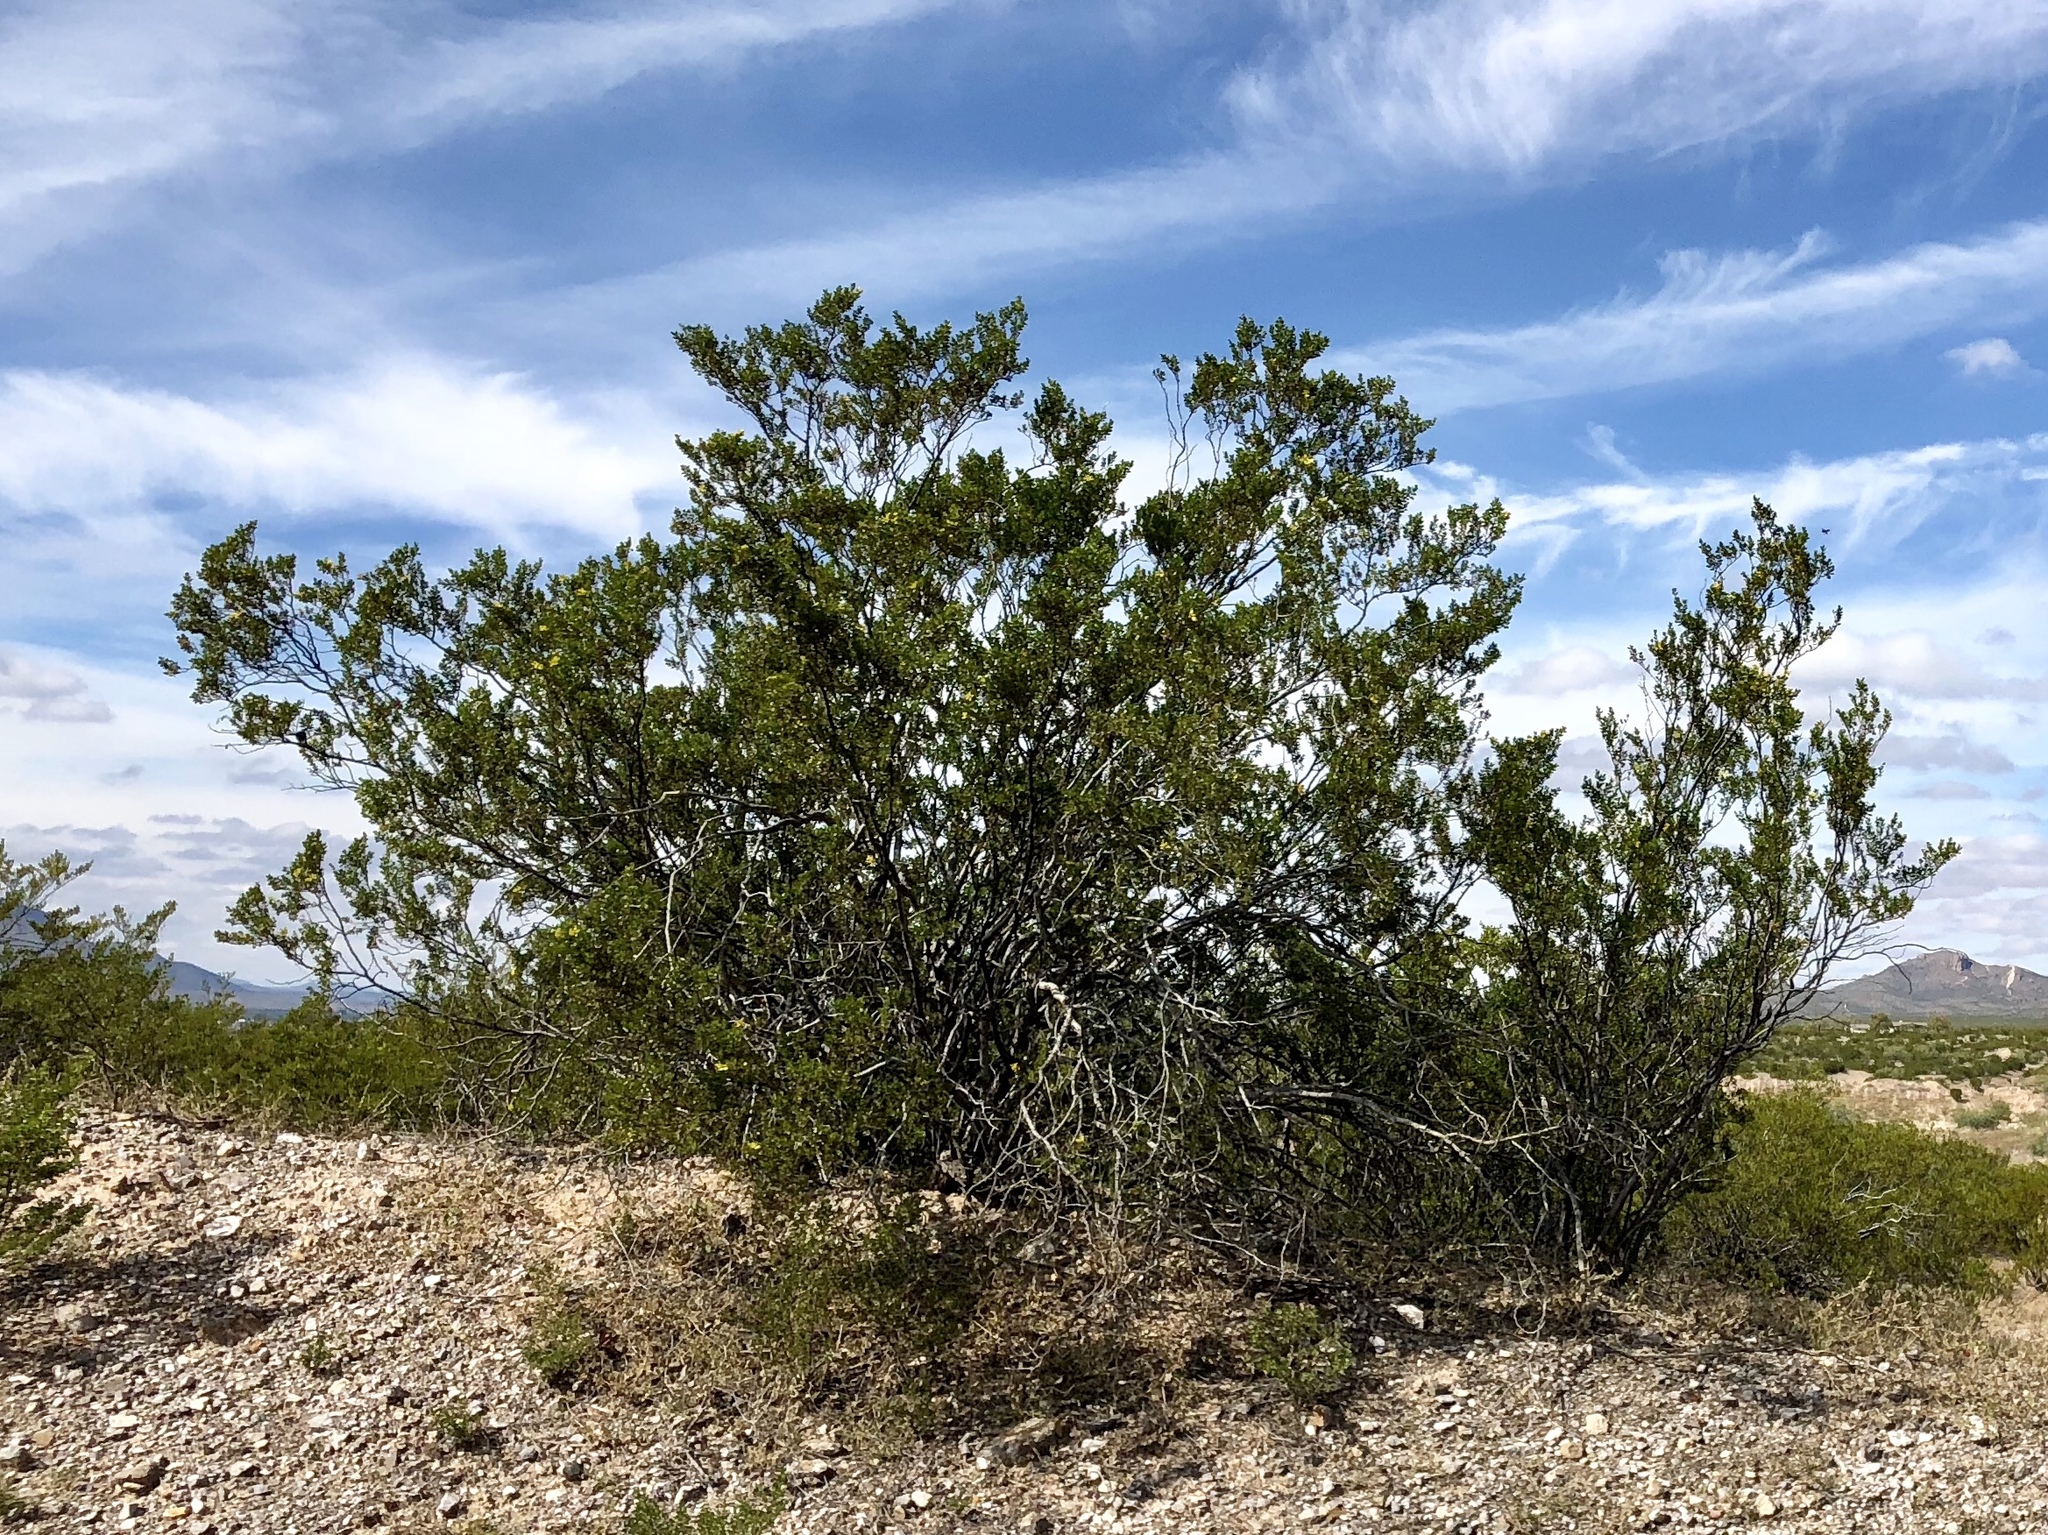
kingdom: Plantae
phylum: Tracheophyta
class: Magnoliopsida
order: Zygophyllales
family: Zygophyllaceae
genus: Larrea
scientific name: Larrea tridentata
